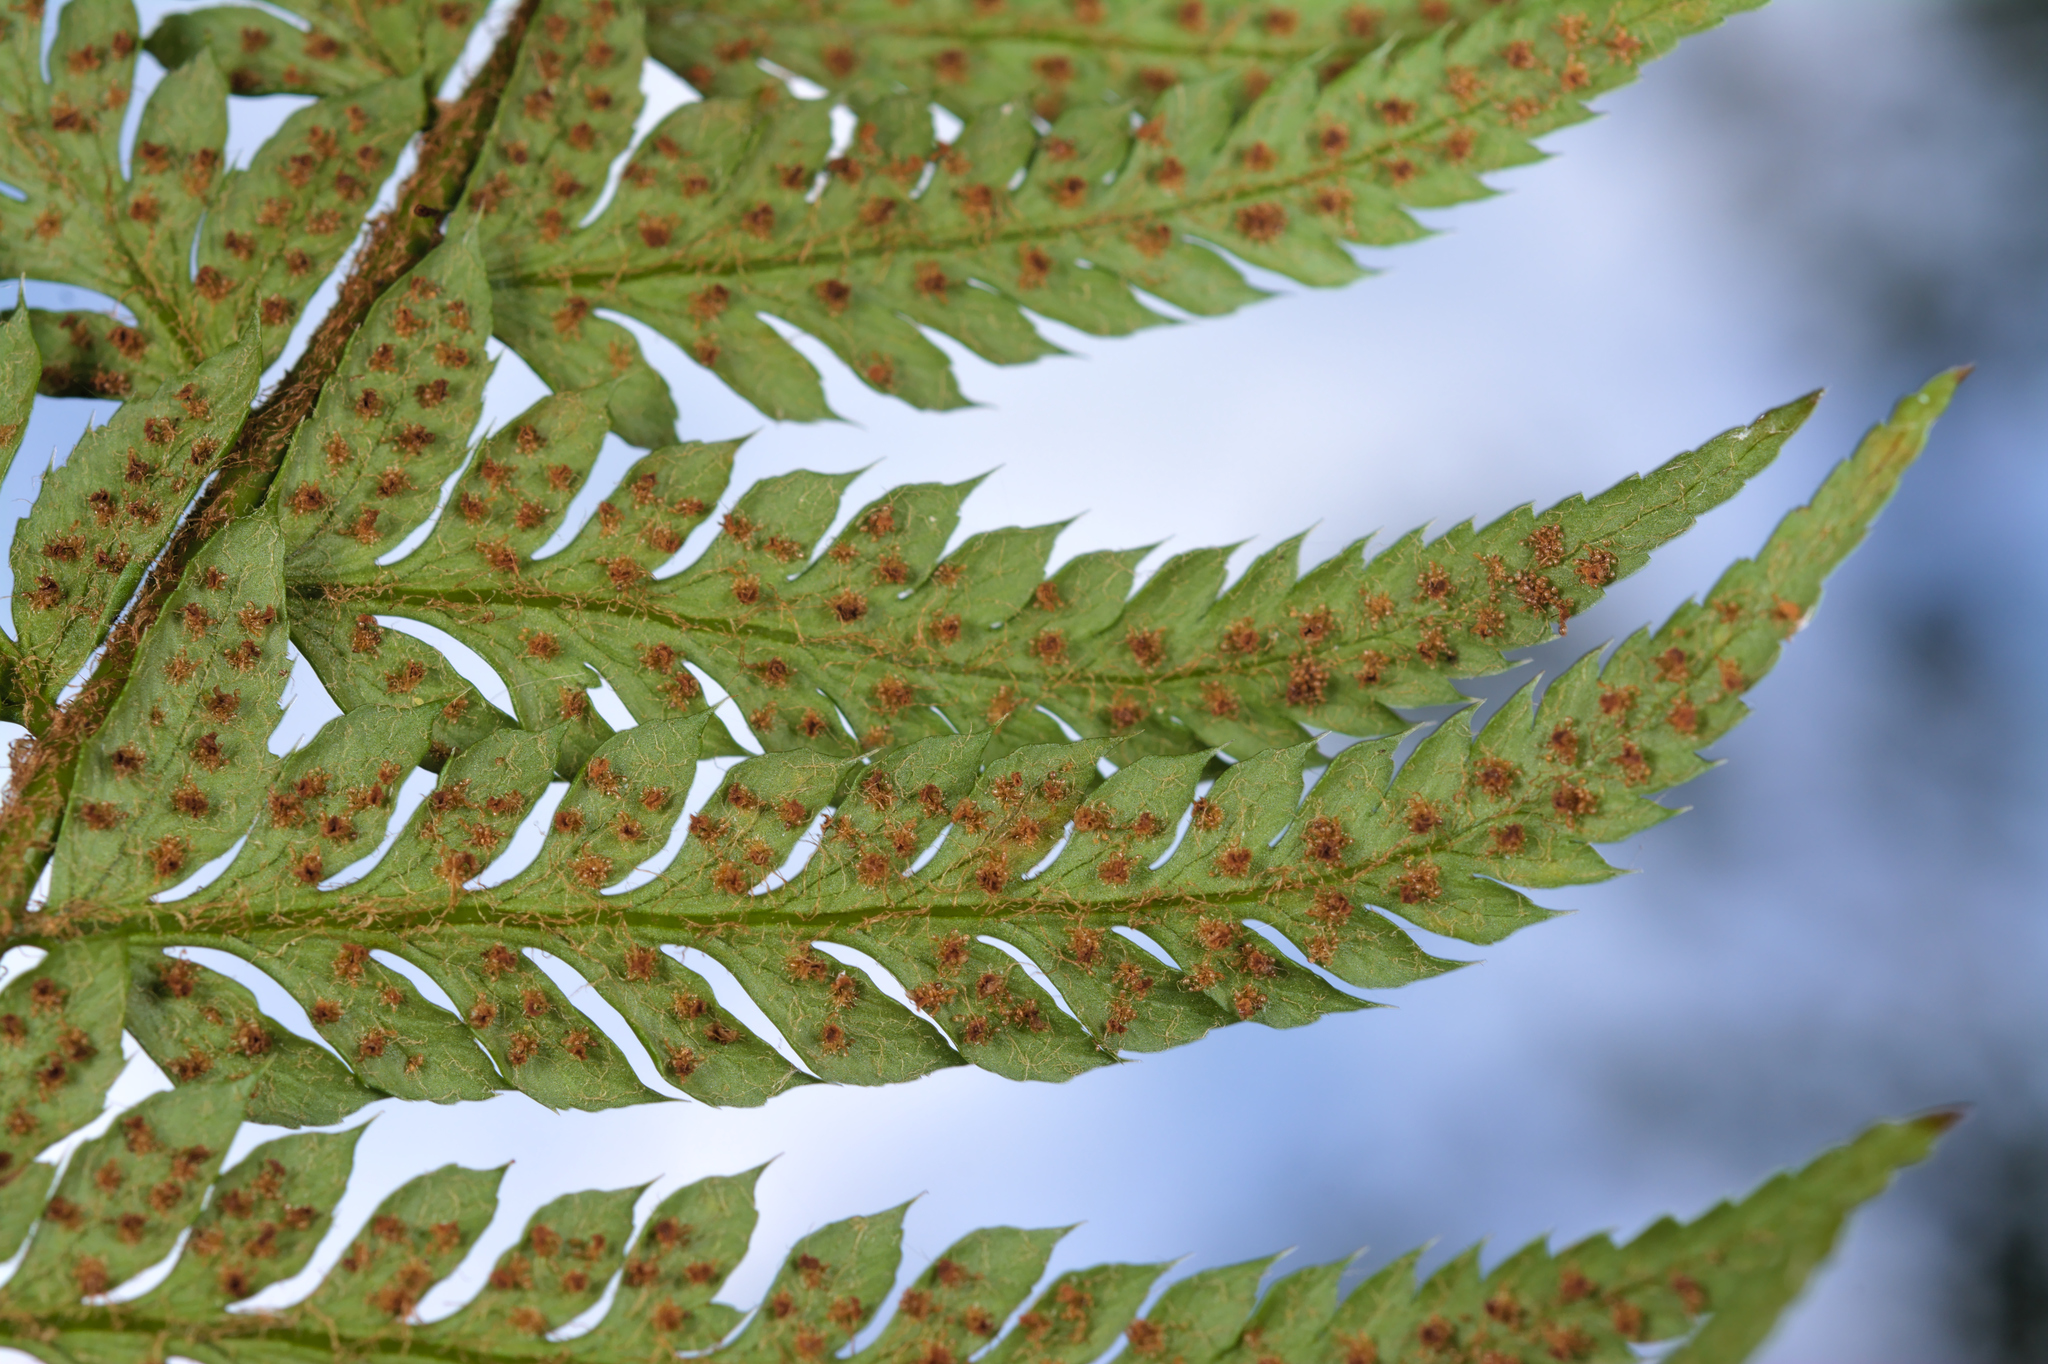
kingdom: Plantae
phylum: Tracheophyta
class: Polypodiopsida
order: Polypodiales
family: Dryopteridaceae
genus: Polystichum
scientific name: Polystichum aculeatum
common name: Hard shield-fern
